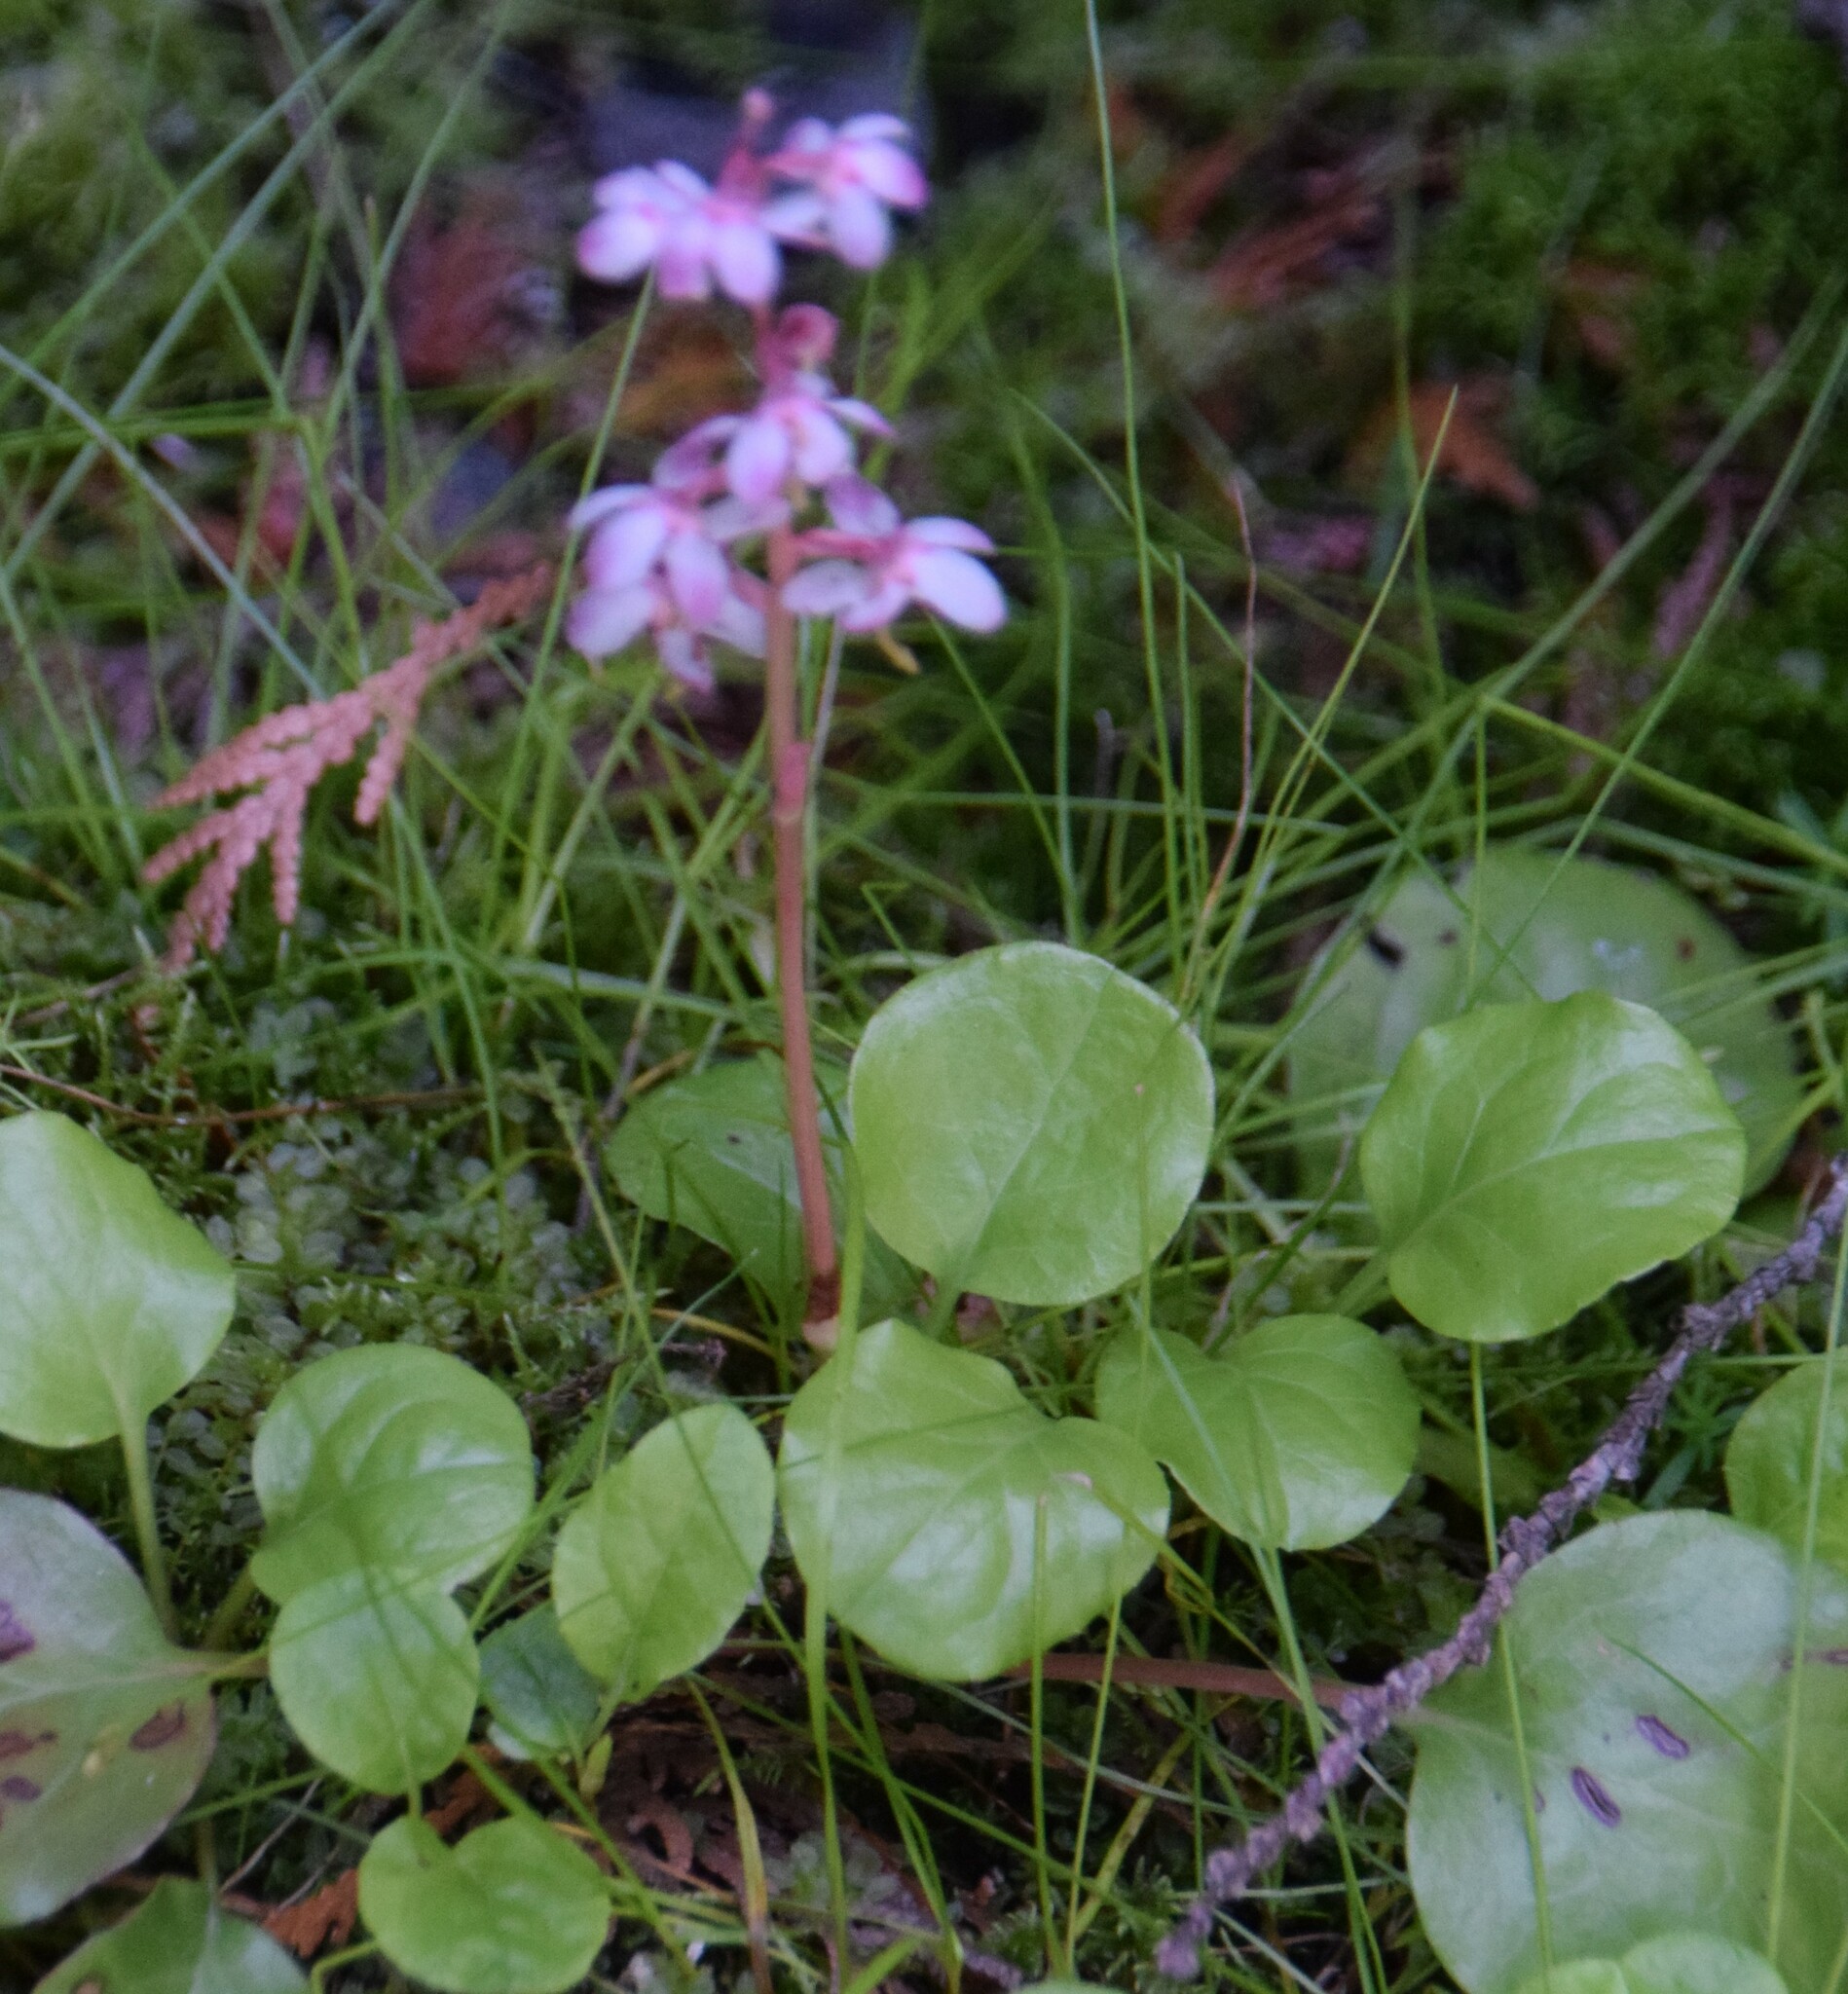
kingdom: Plantae
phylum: Tracheophyta
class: Magnoliopsida
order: Ericales
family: Ericaceae
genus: Pyrola
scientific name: Pyrola asarifolia
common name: Bog wintergreen
